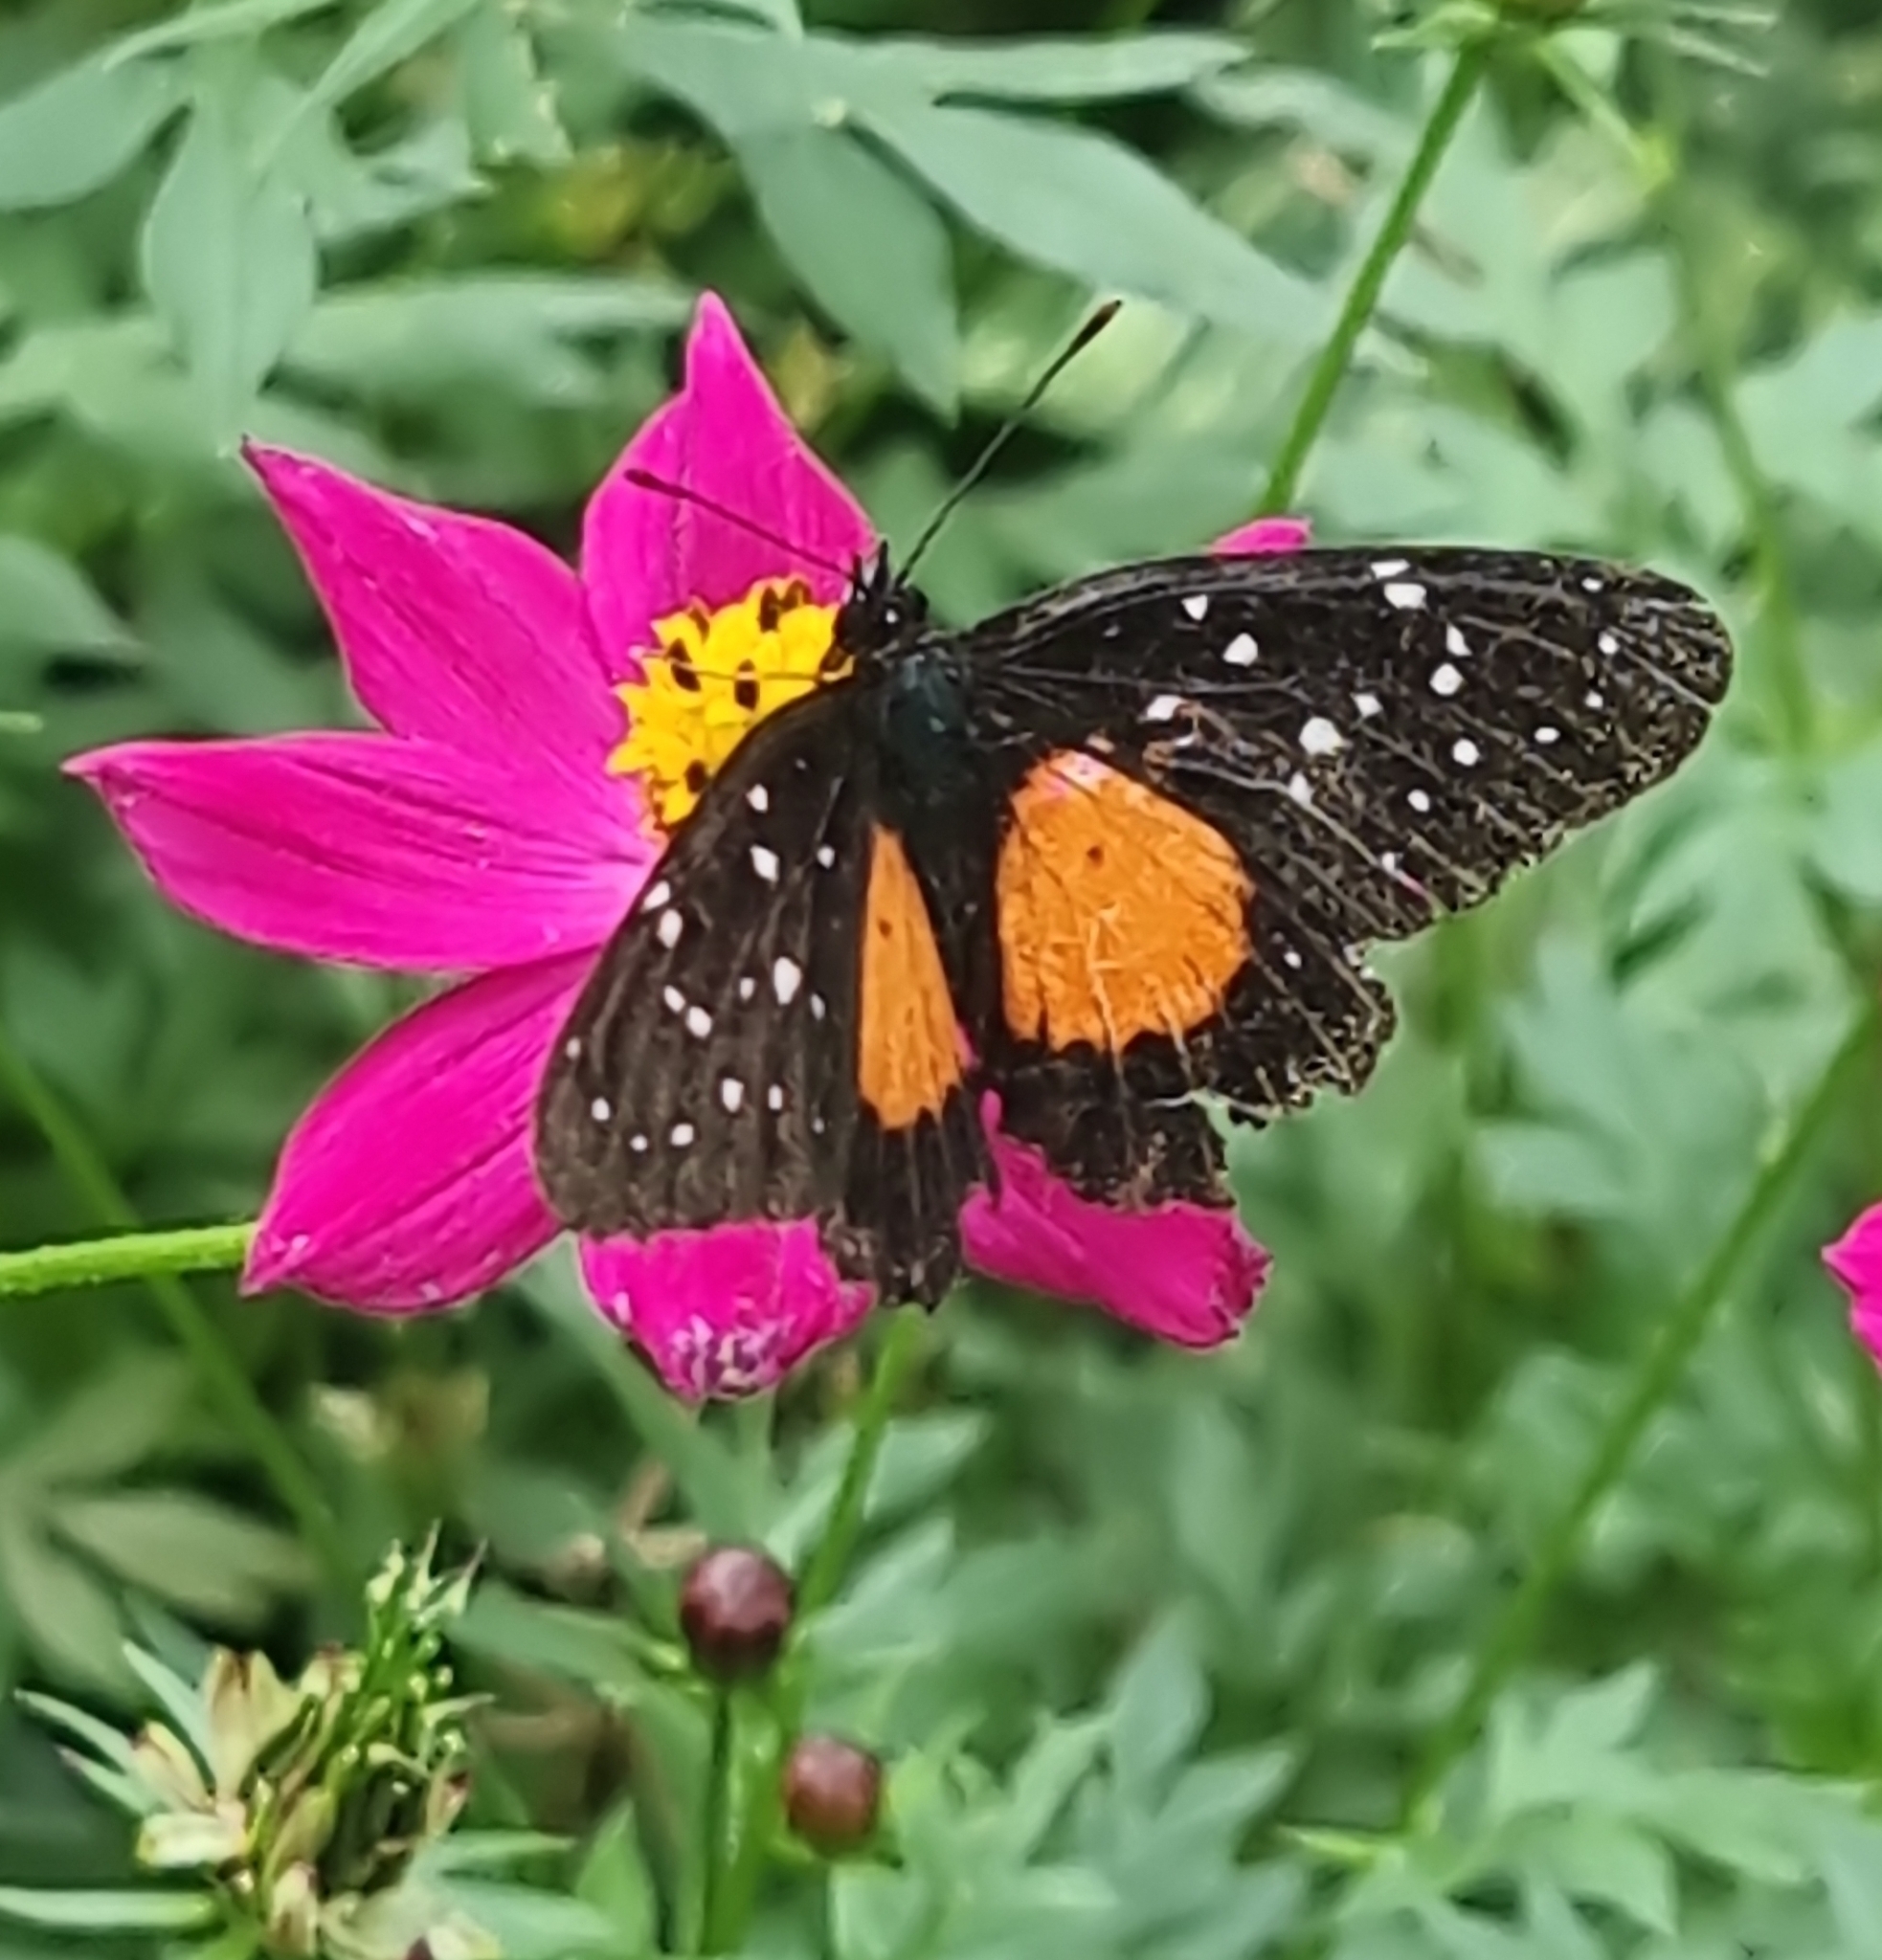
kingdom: Animalia
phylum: Arthropoda
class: Insecta
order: Lepidoptera
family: Nymphalidae
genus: Chlosyne
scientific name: Chlosyne janais
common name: Crimson patch
